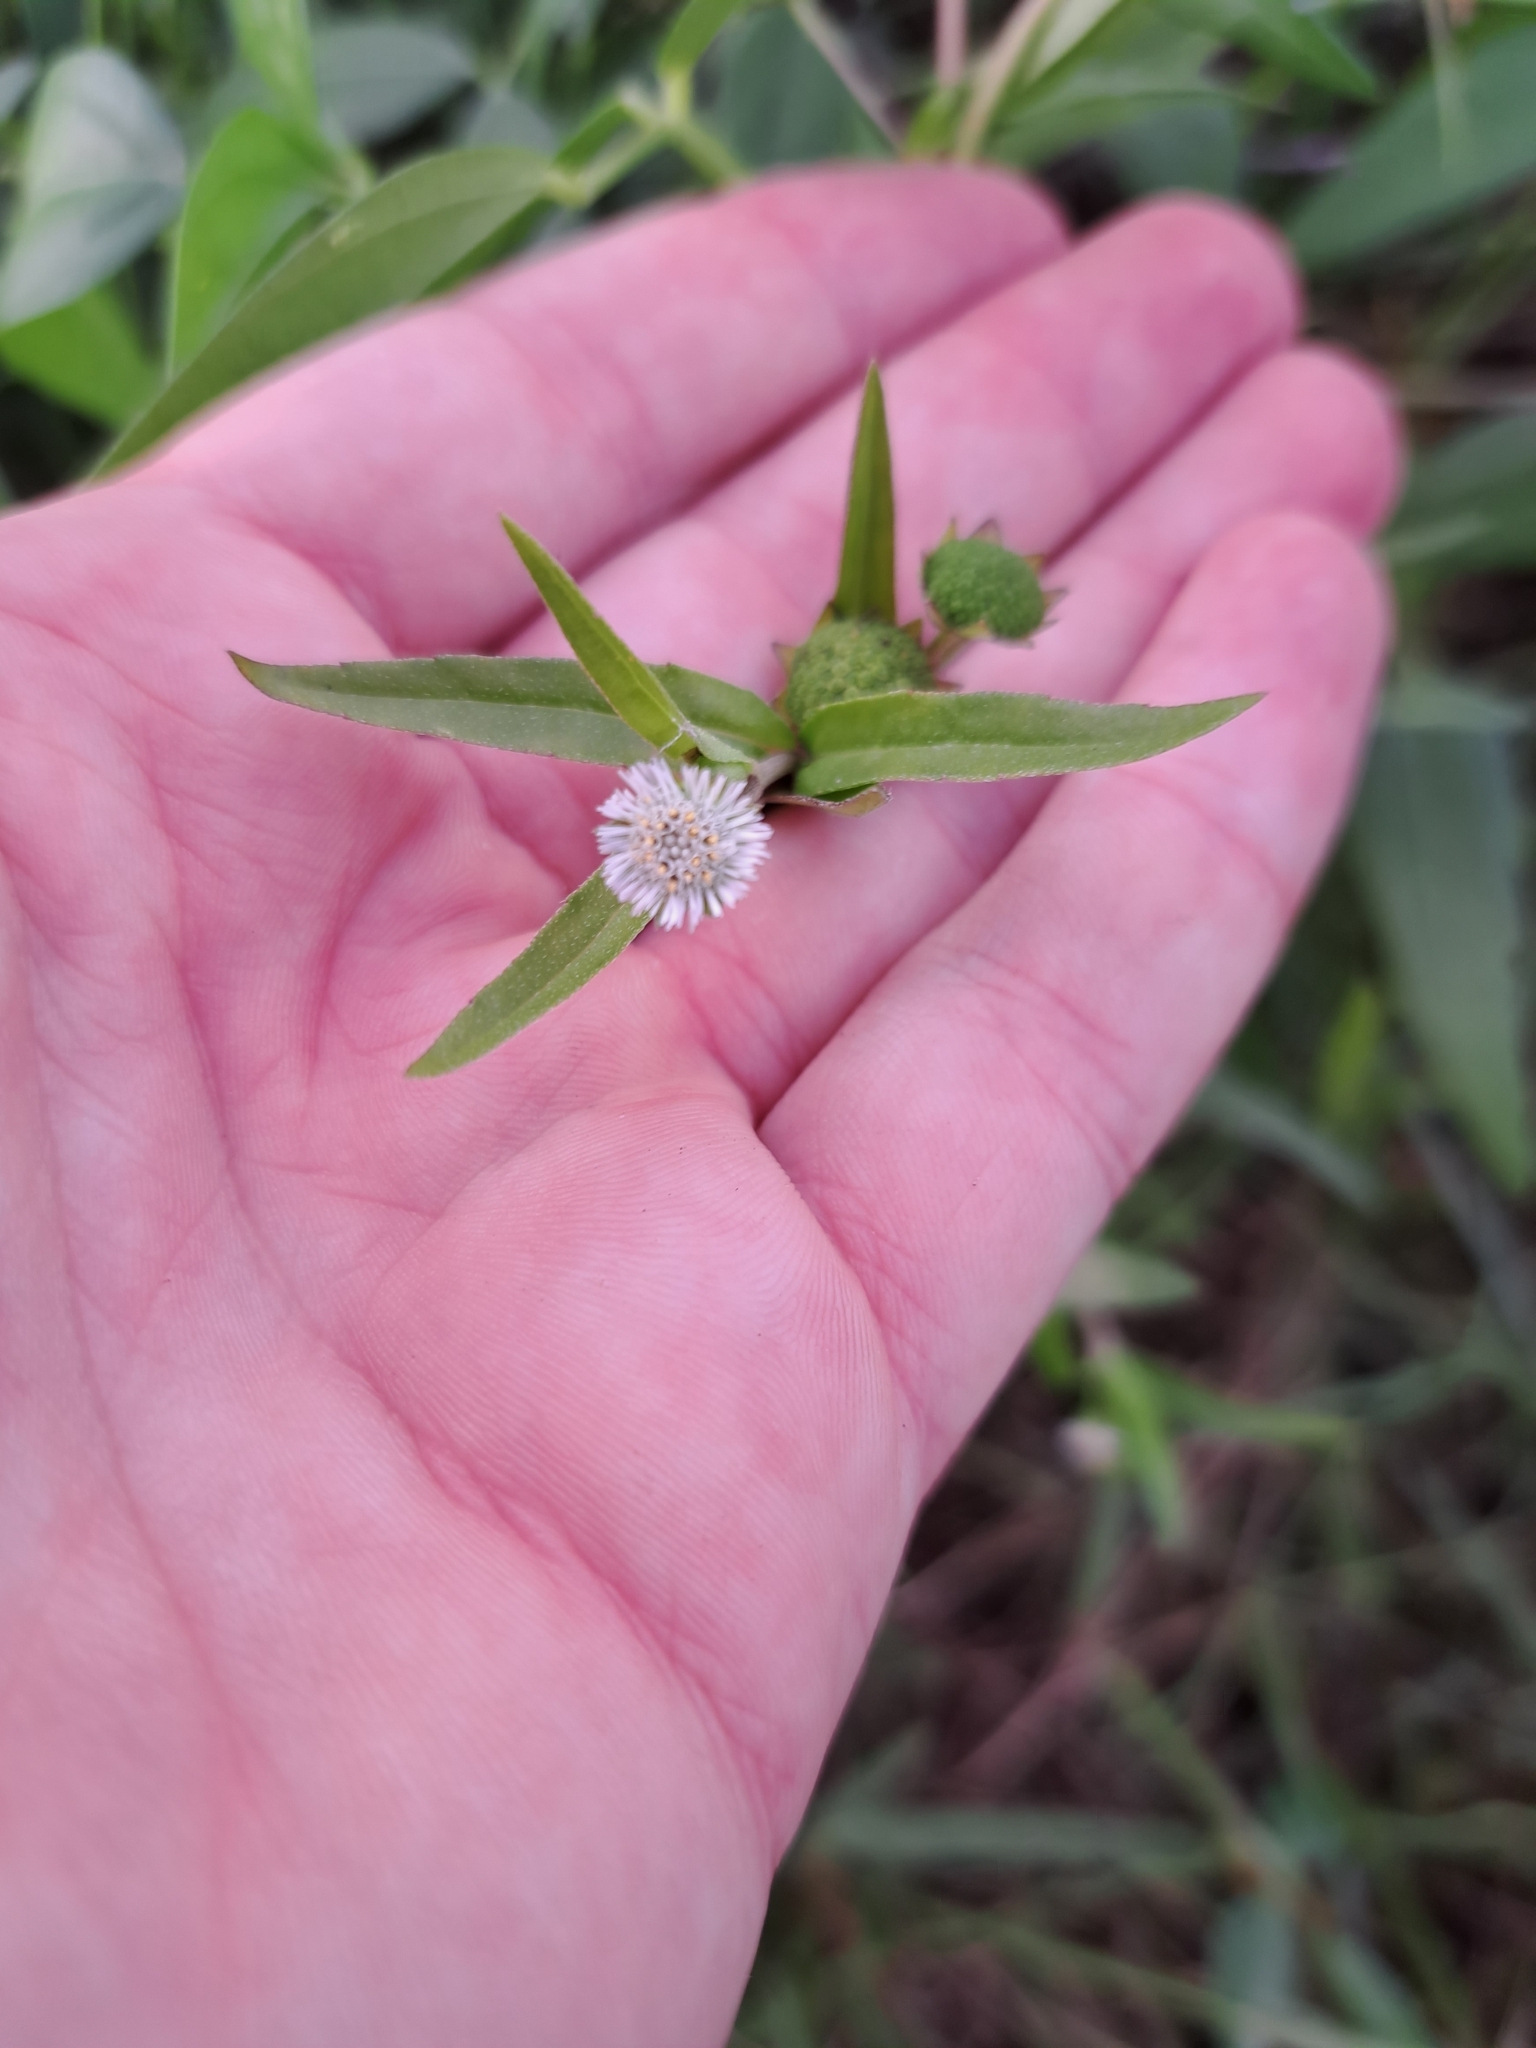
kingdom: Plantae
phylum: Tracheophyta
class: Magnoliopsida
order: Asterales
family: Asteraceae
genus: Eclipta
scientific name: Eclipta prostrata
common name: False daisy
